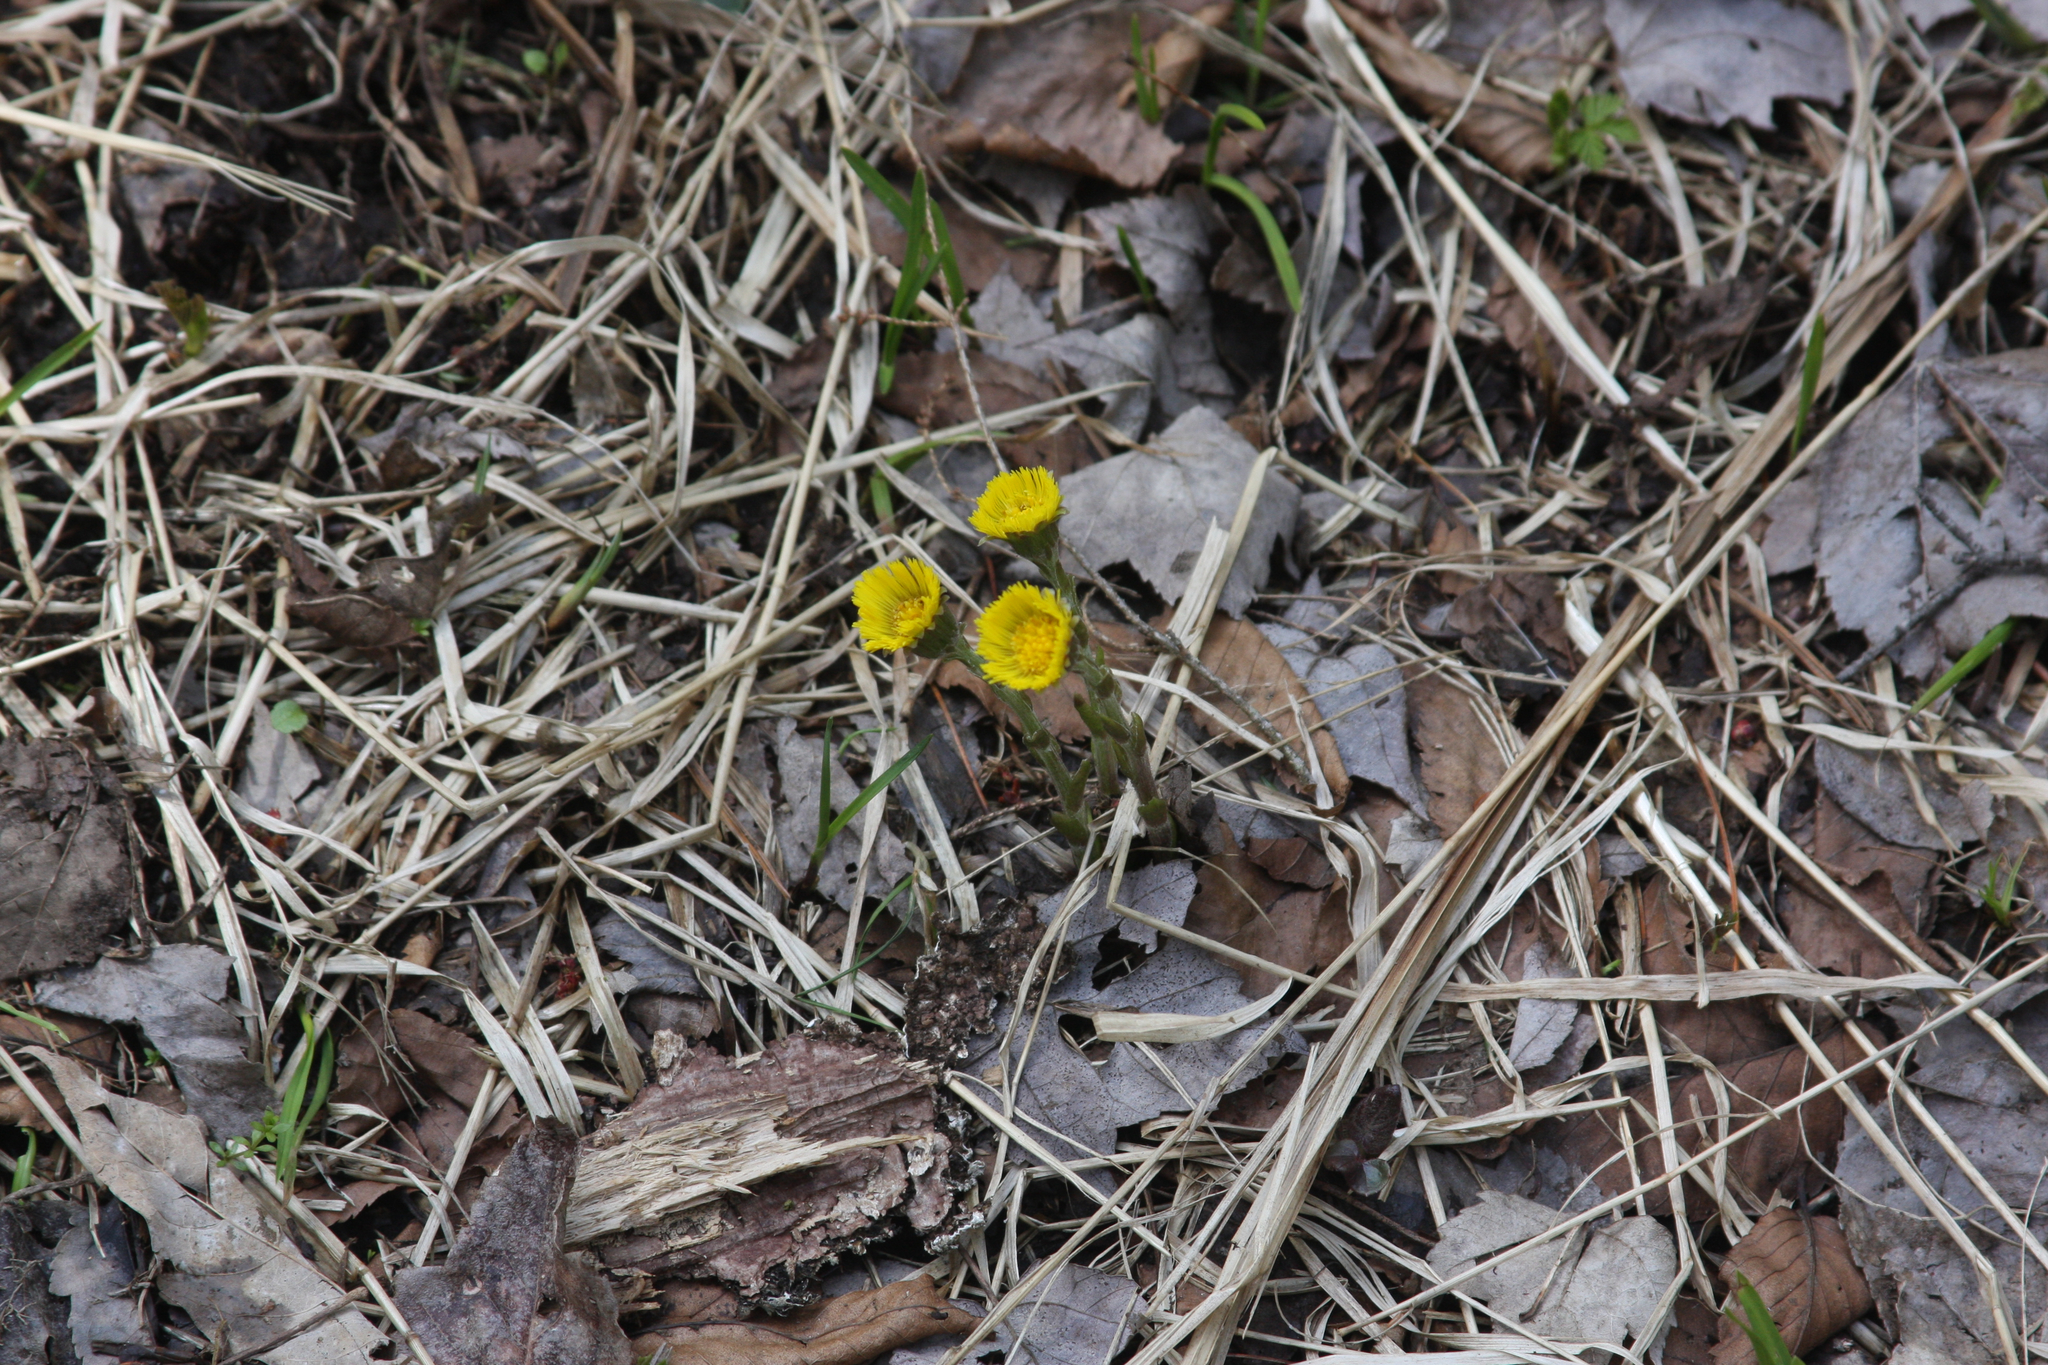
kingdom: Plantae
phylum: Tracheophyta
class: Magnoliopsida
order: Asterales
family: Asteraceae
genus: Tussilago
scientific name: Tussilago farfara
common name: Coltsfoot
